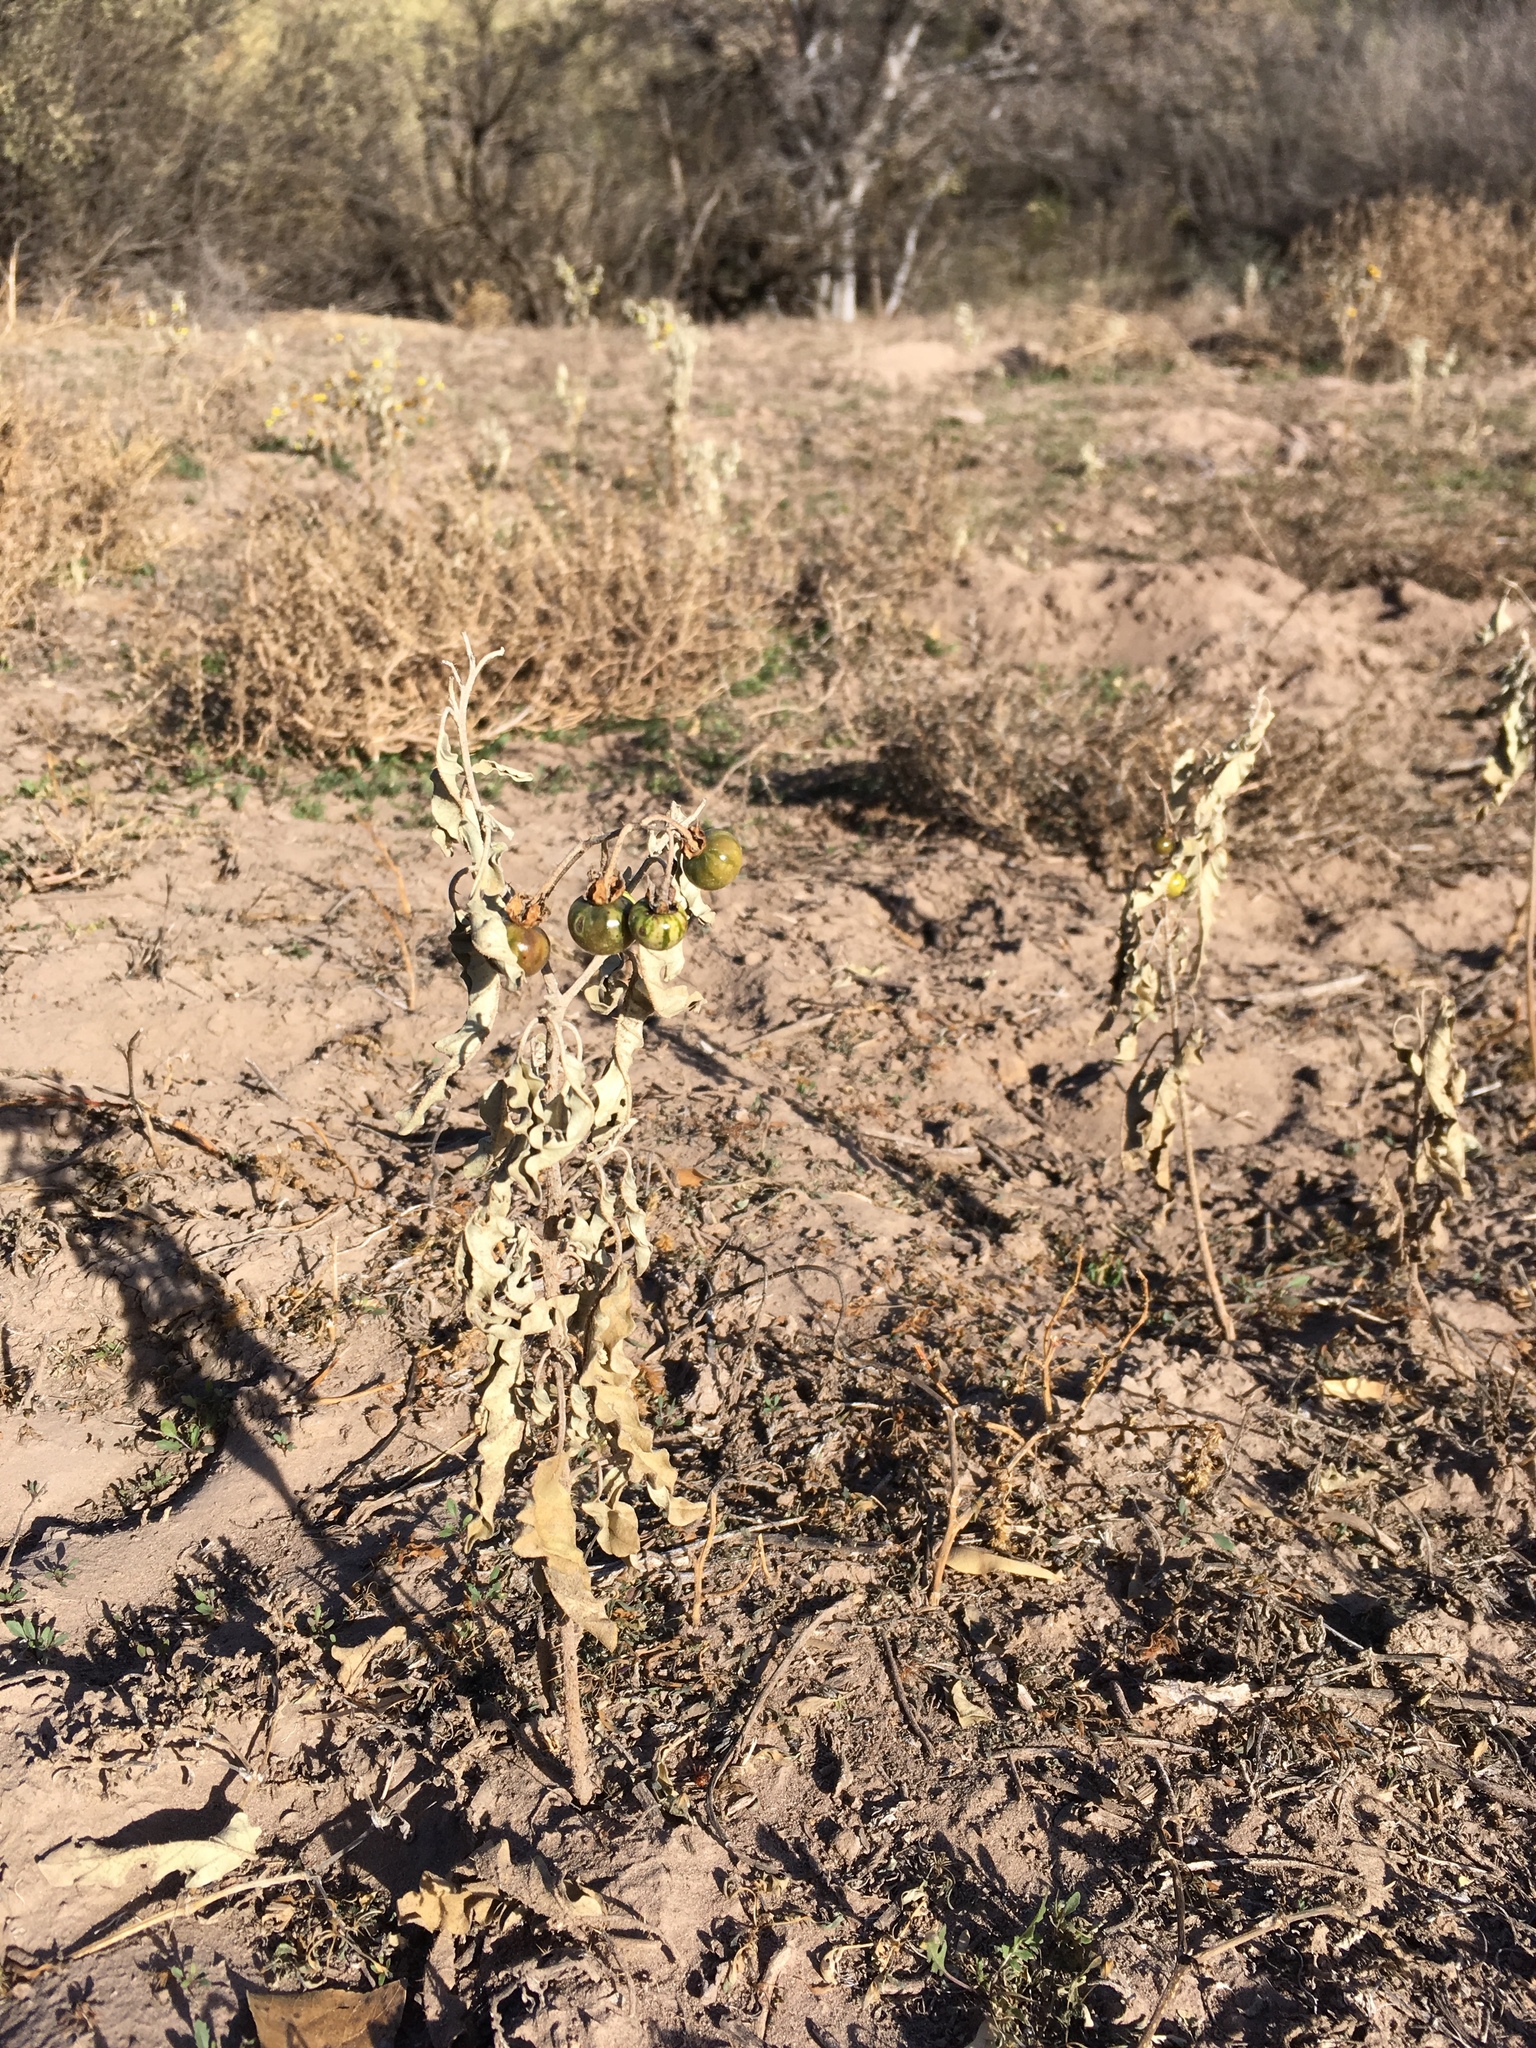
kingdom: Plantae
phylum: Tracheophyta
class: Magnoliopsida
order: Solanales
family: Solanaceae
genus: Solanum
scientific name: Solanum elaeagnifolium
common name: Silverleaf nightshade
